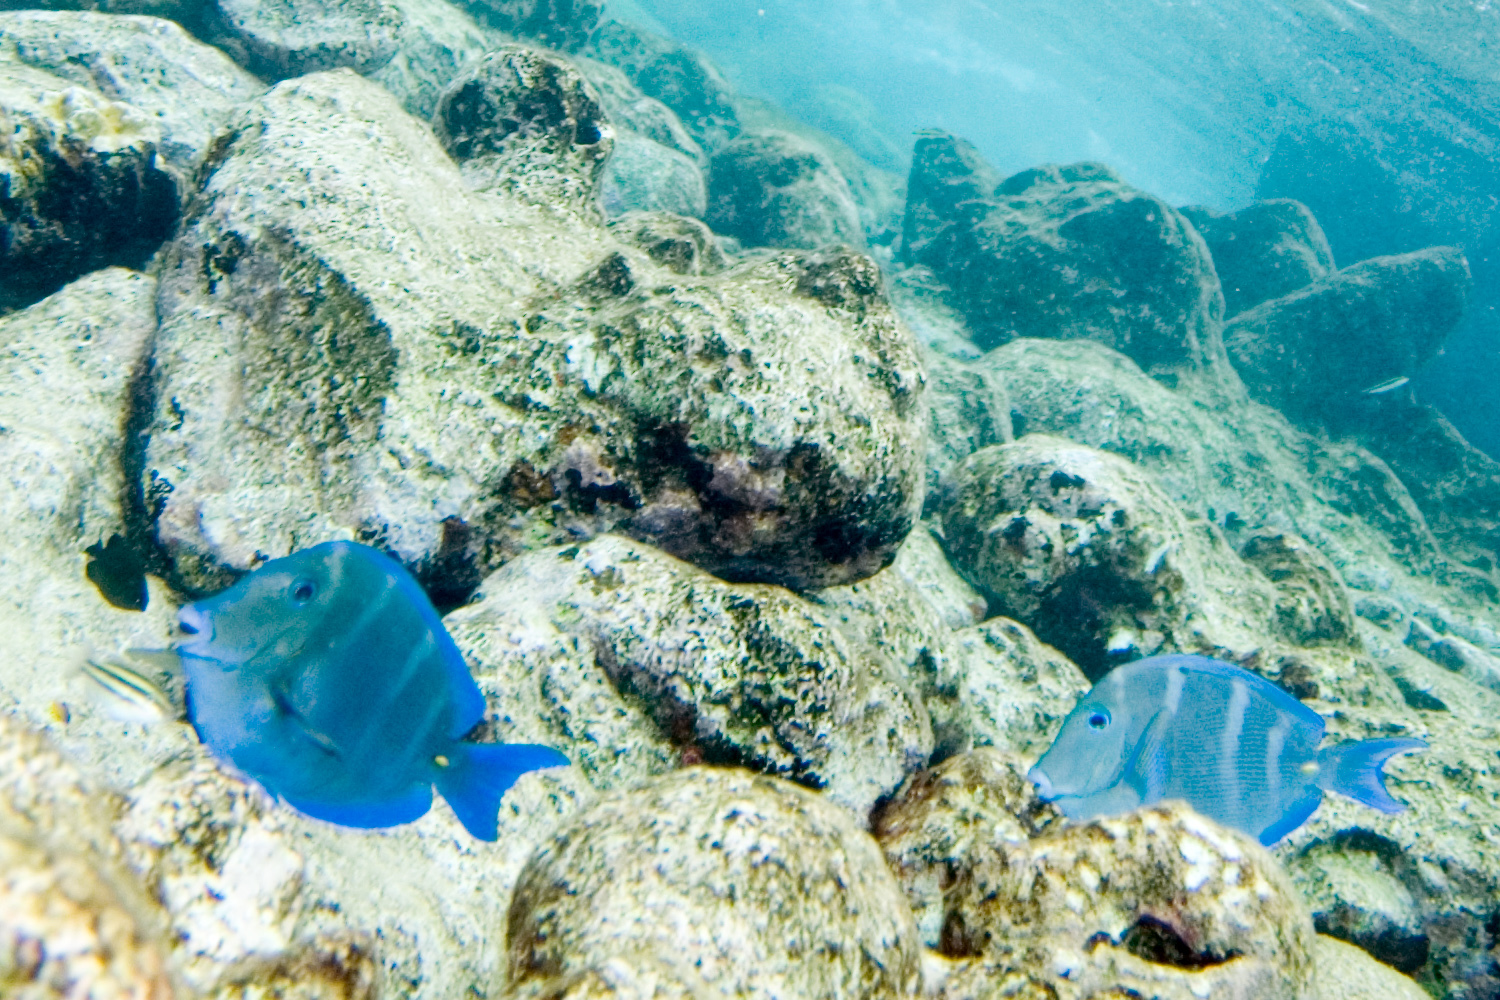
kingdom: Animalia
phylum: Chordata
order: Perciformes
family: Acanthuridae
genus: Acanthurus
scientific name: Acanthurus coeruleus
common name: Blue tang
